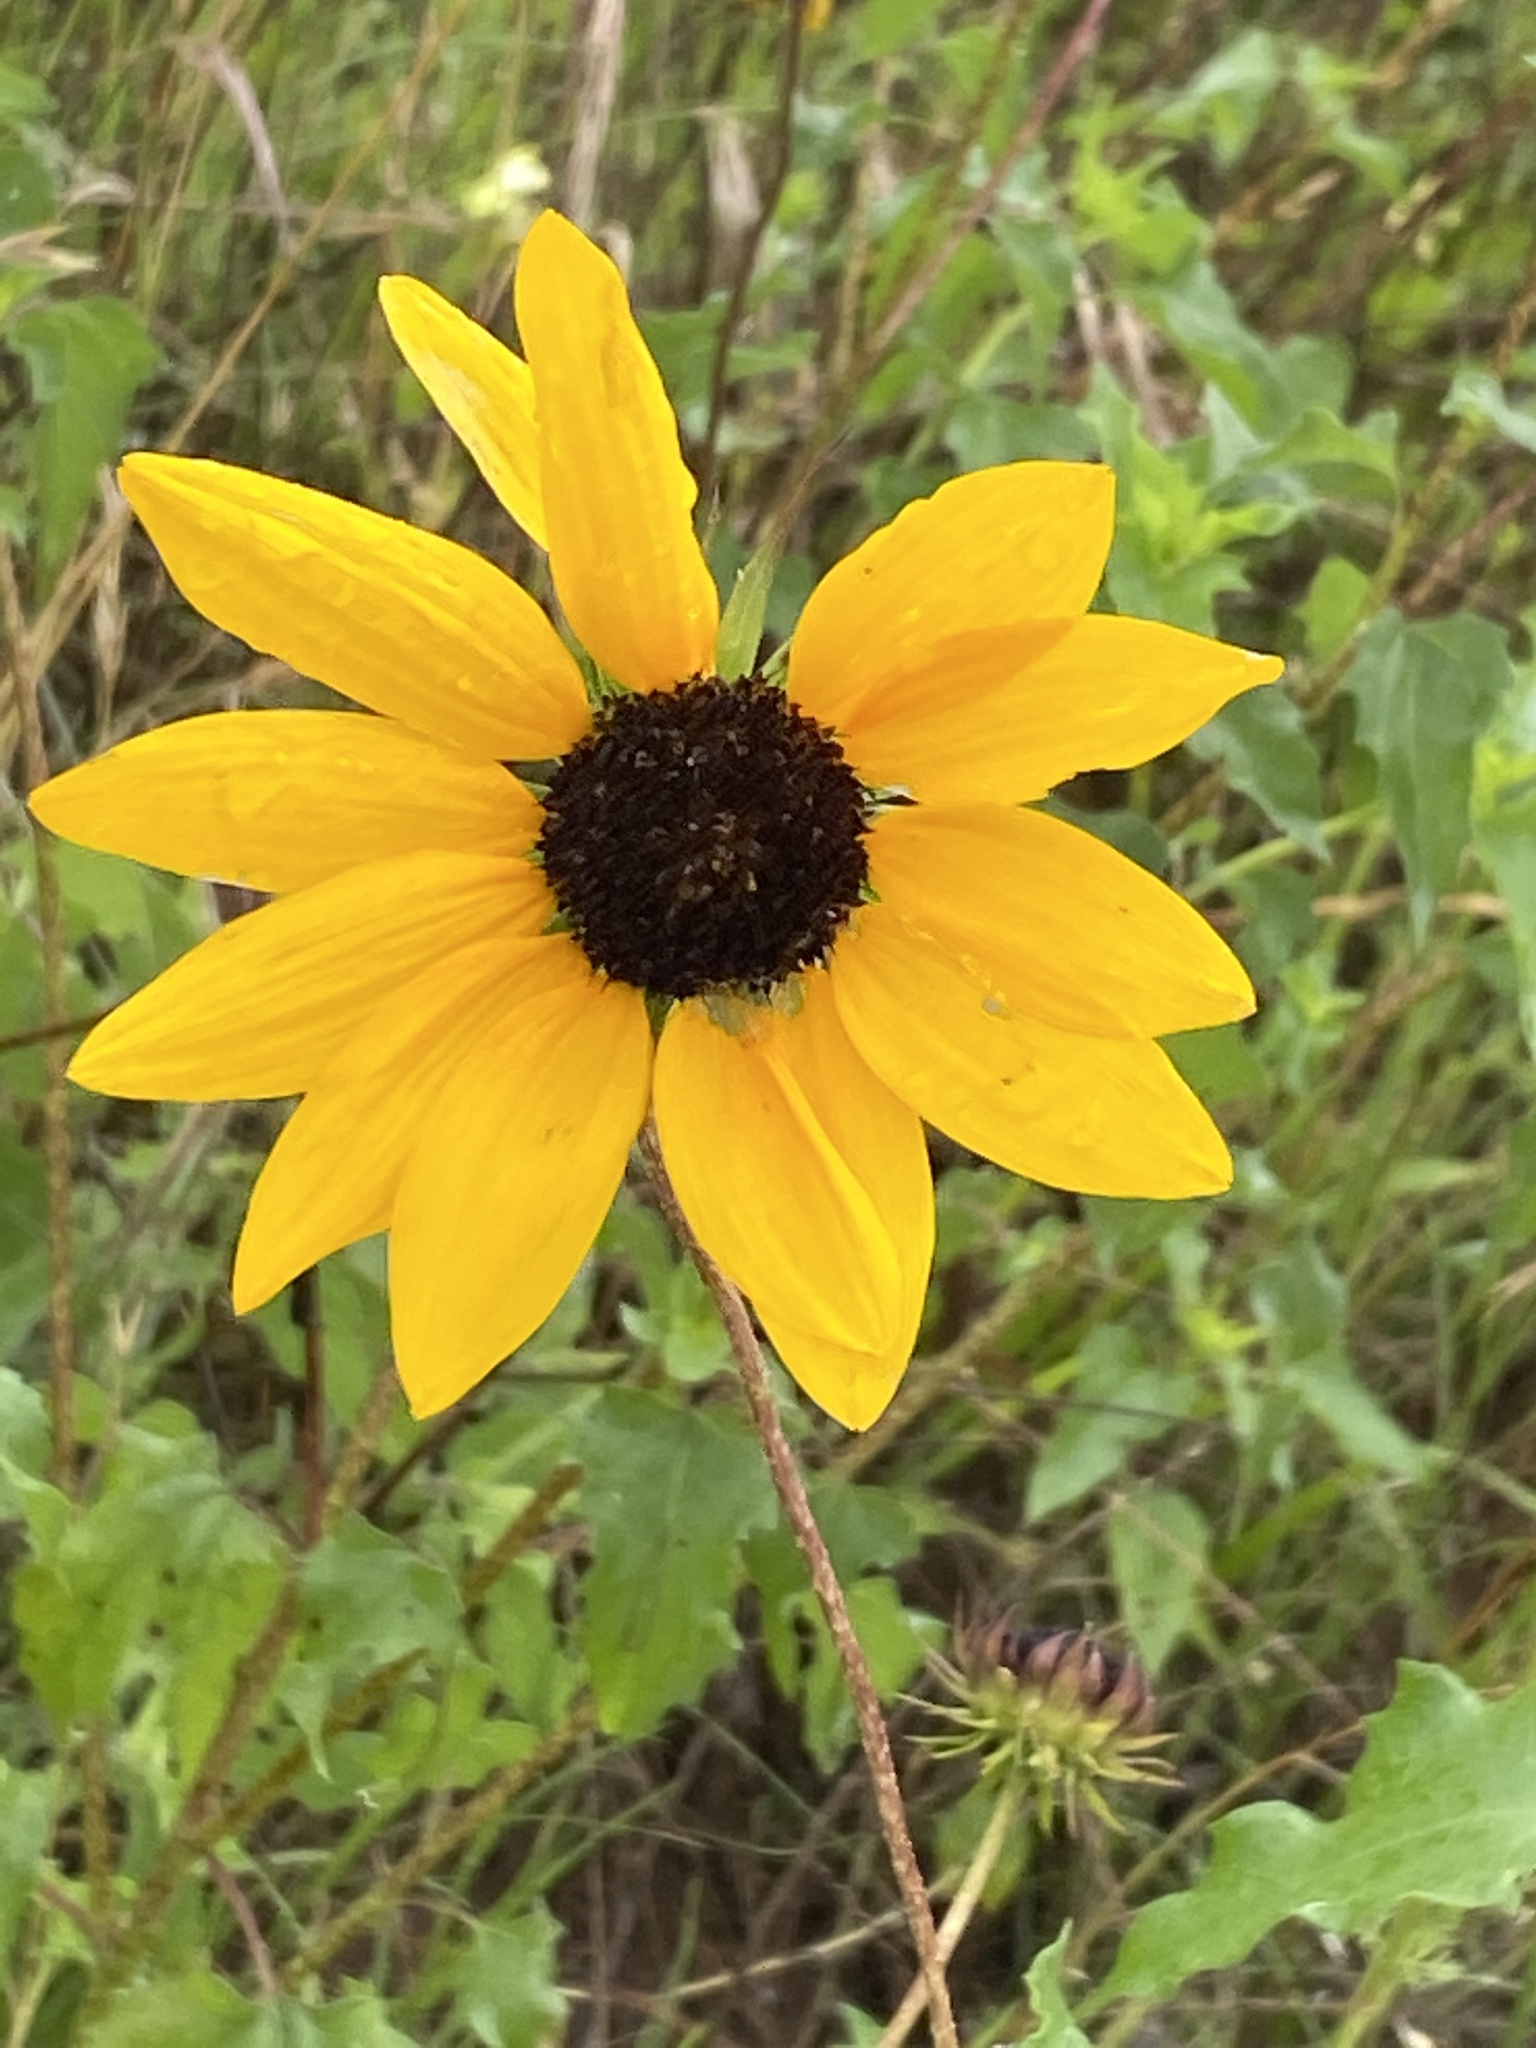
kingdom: Plantae
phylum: Tracheophyta
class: Magnoliopsida
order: Asterales
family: Asteraceae
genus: Helianthus
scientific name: Helianthus debilis
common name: Weak sunflower
